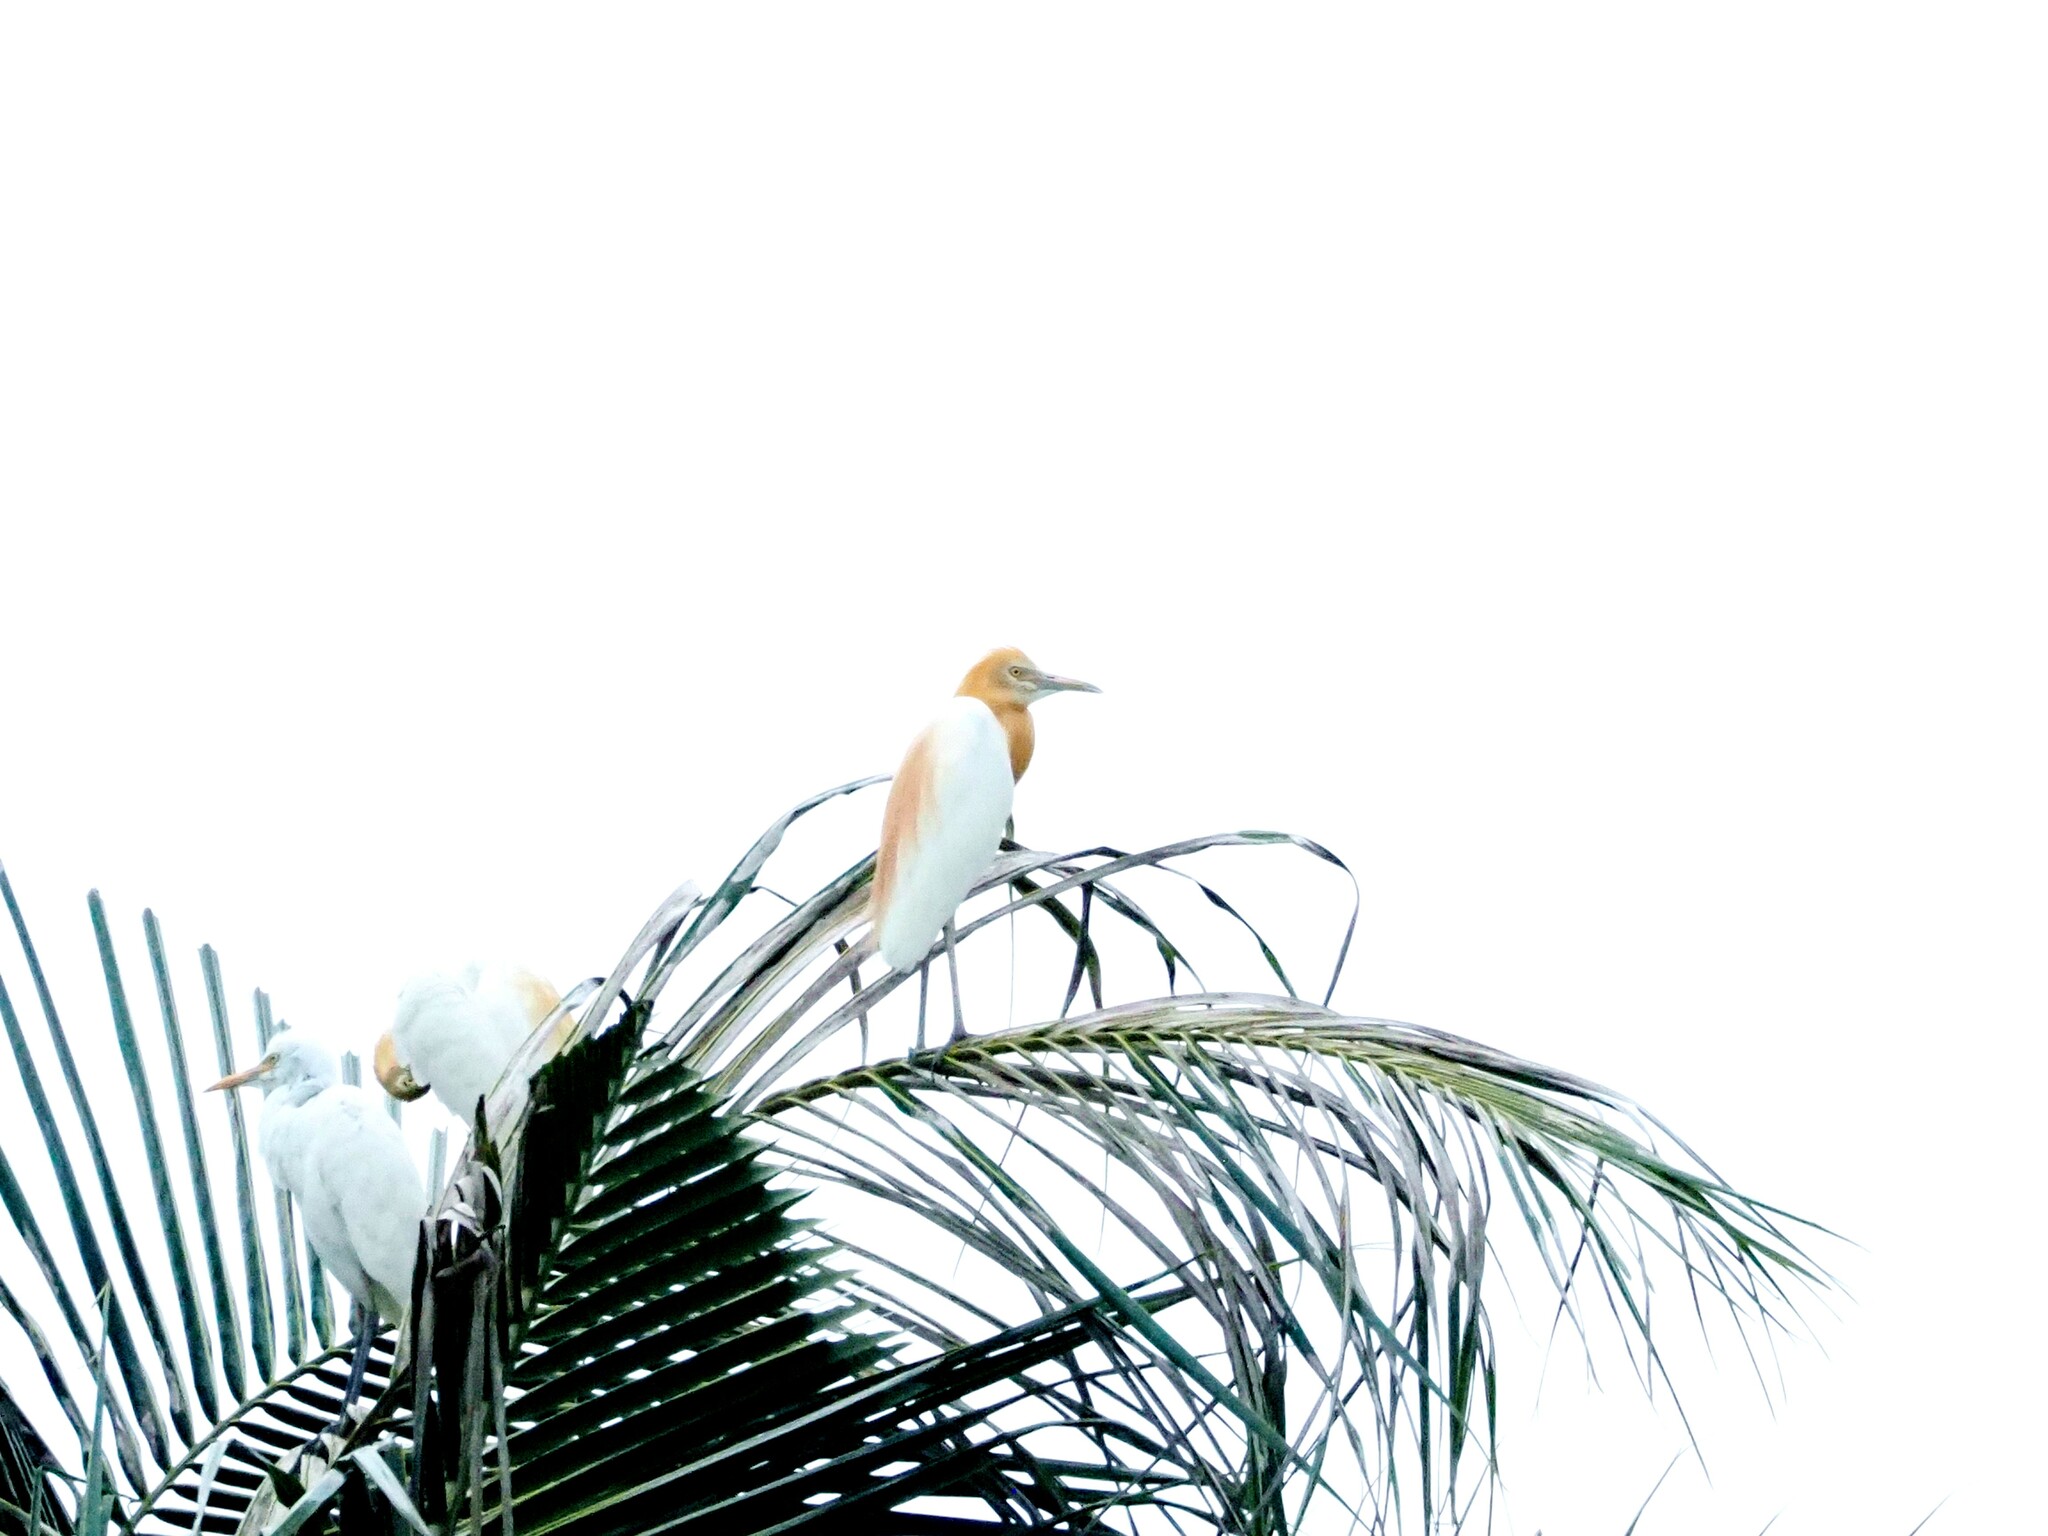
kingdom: Animalia
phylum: Chordata
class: Aves
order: Pelecaniformes
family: Ardeidae
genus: Bubulcus
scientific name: Bubulcus coromandus
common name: Eastern cattle egret
